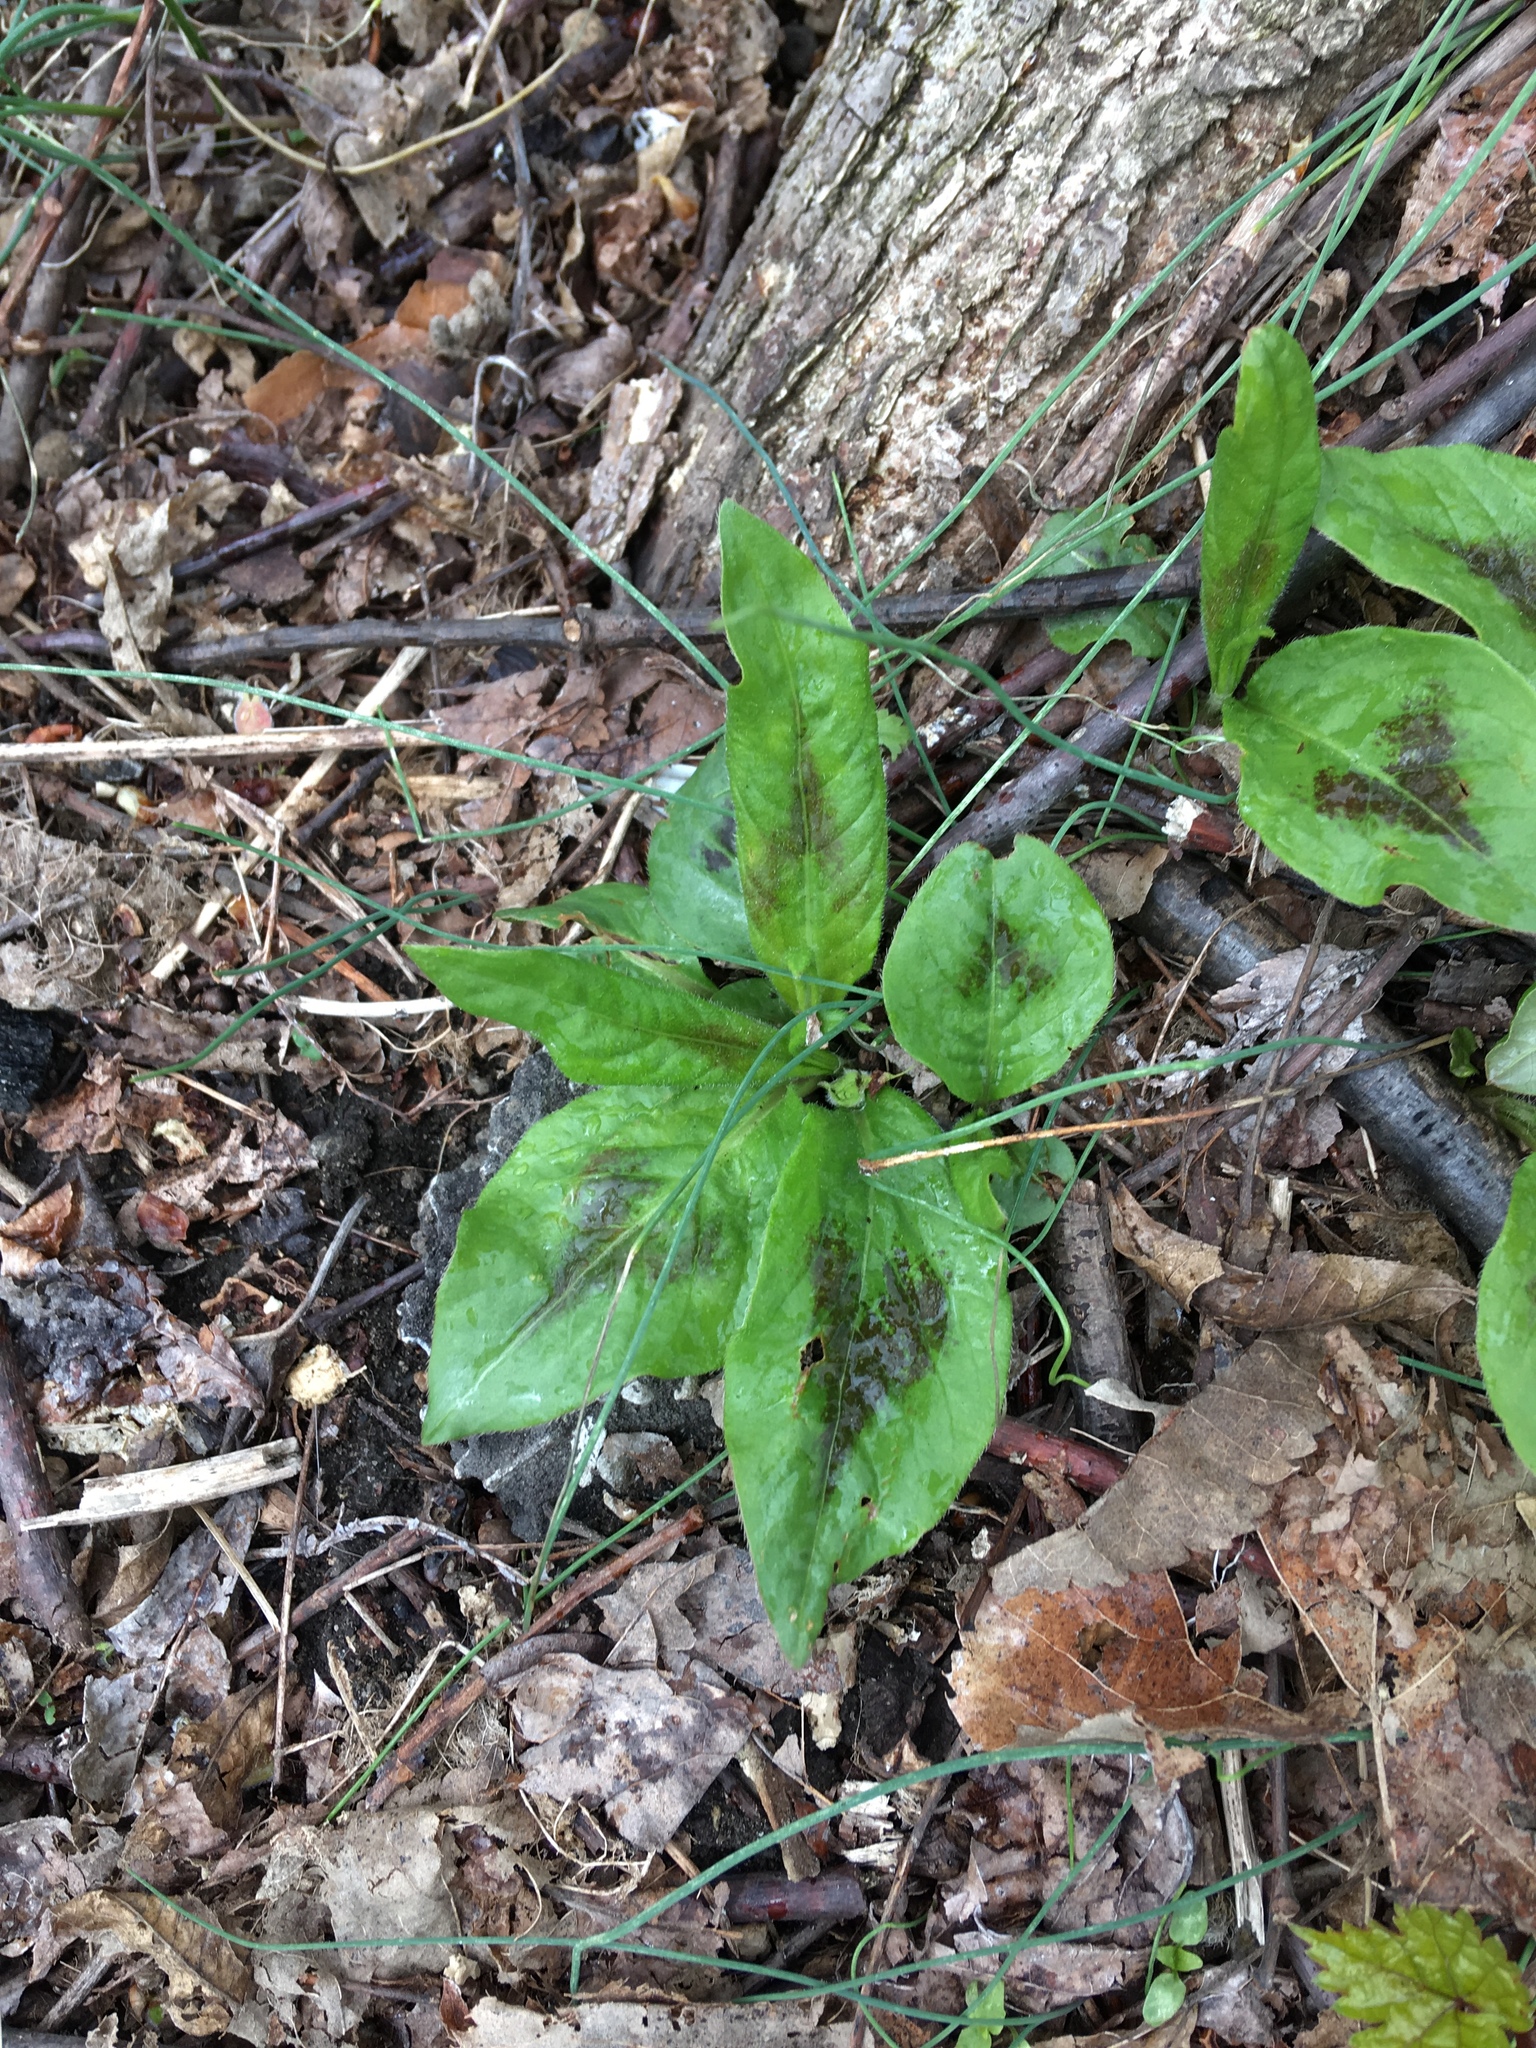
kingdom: Plantae
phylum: Tracheophyta
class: Magnoliopsida
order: Caryophyllales
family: Polygonaceae
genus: Persicaria
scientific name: Persicaria virginiana
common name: Jumpseed
